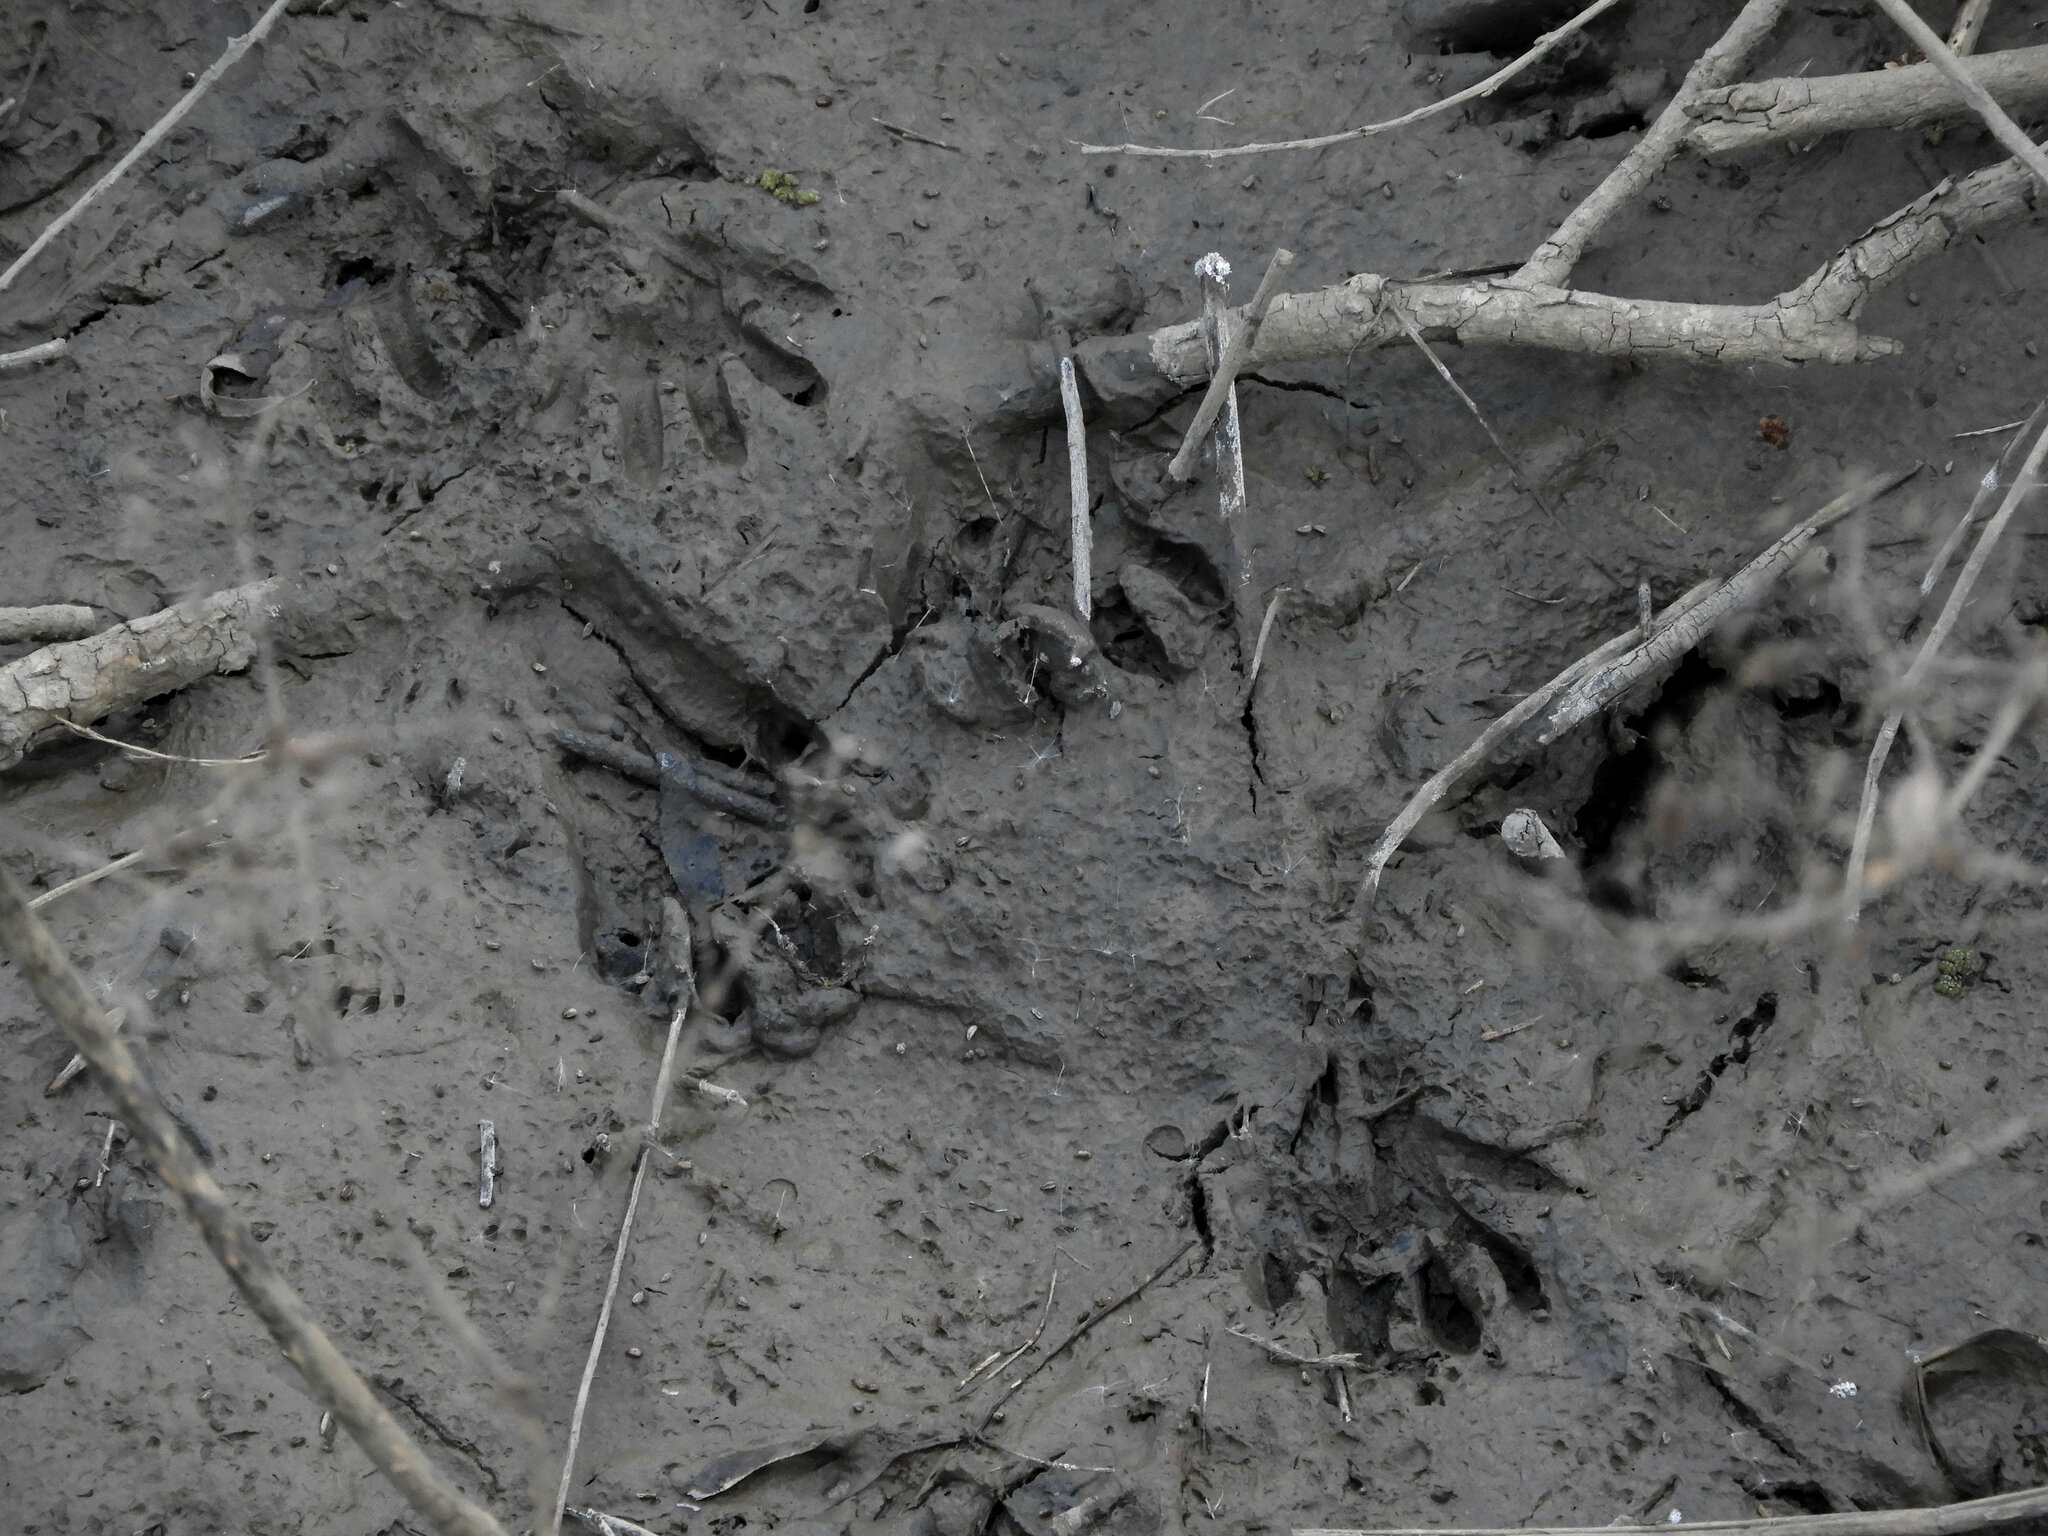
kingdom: Animalia
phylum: Chordata
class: Mammalia
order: Carnivora
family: Procyonidae
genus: Procyon
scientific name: Procyon lotor
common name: Raccoon
